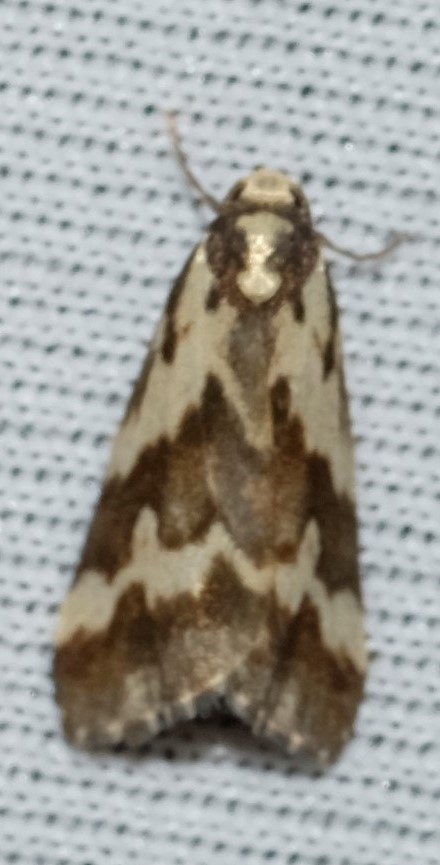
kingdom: Animalia
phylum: Arthropoda
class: Insecta
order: Lepidoptera
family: Erebidae
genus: Damias
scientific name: Damias procrena
